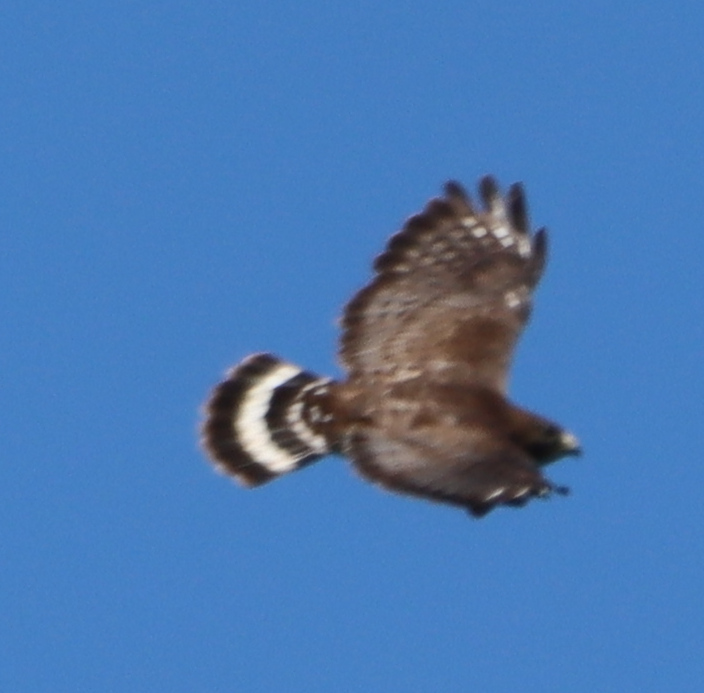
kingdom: Animalia
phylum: Chordata
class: Aves
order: Accipitriformes
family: Accipitridae
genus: Buteo
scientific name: Buteo platypterus
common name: Broad-winged hawk
